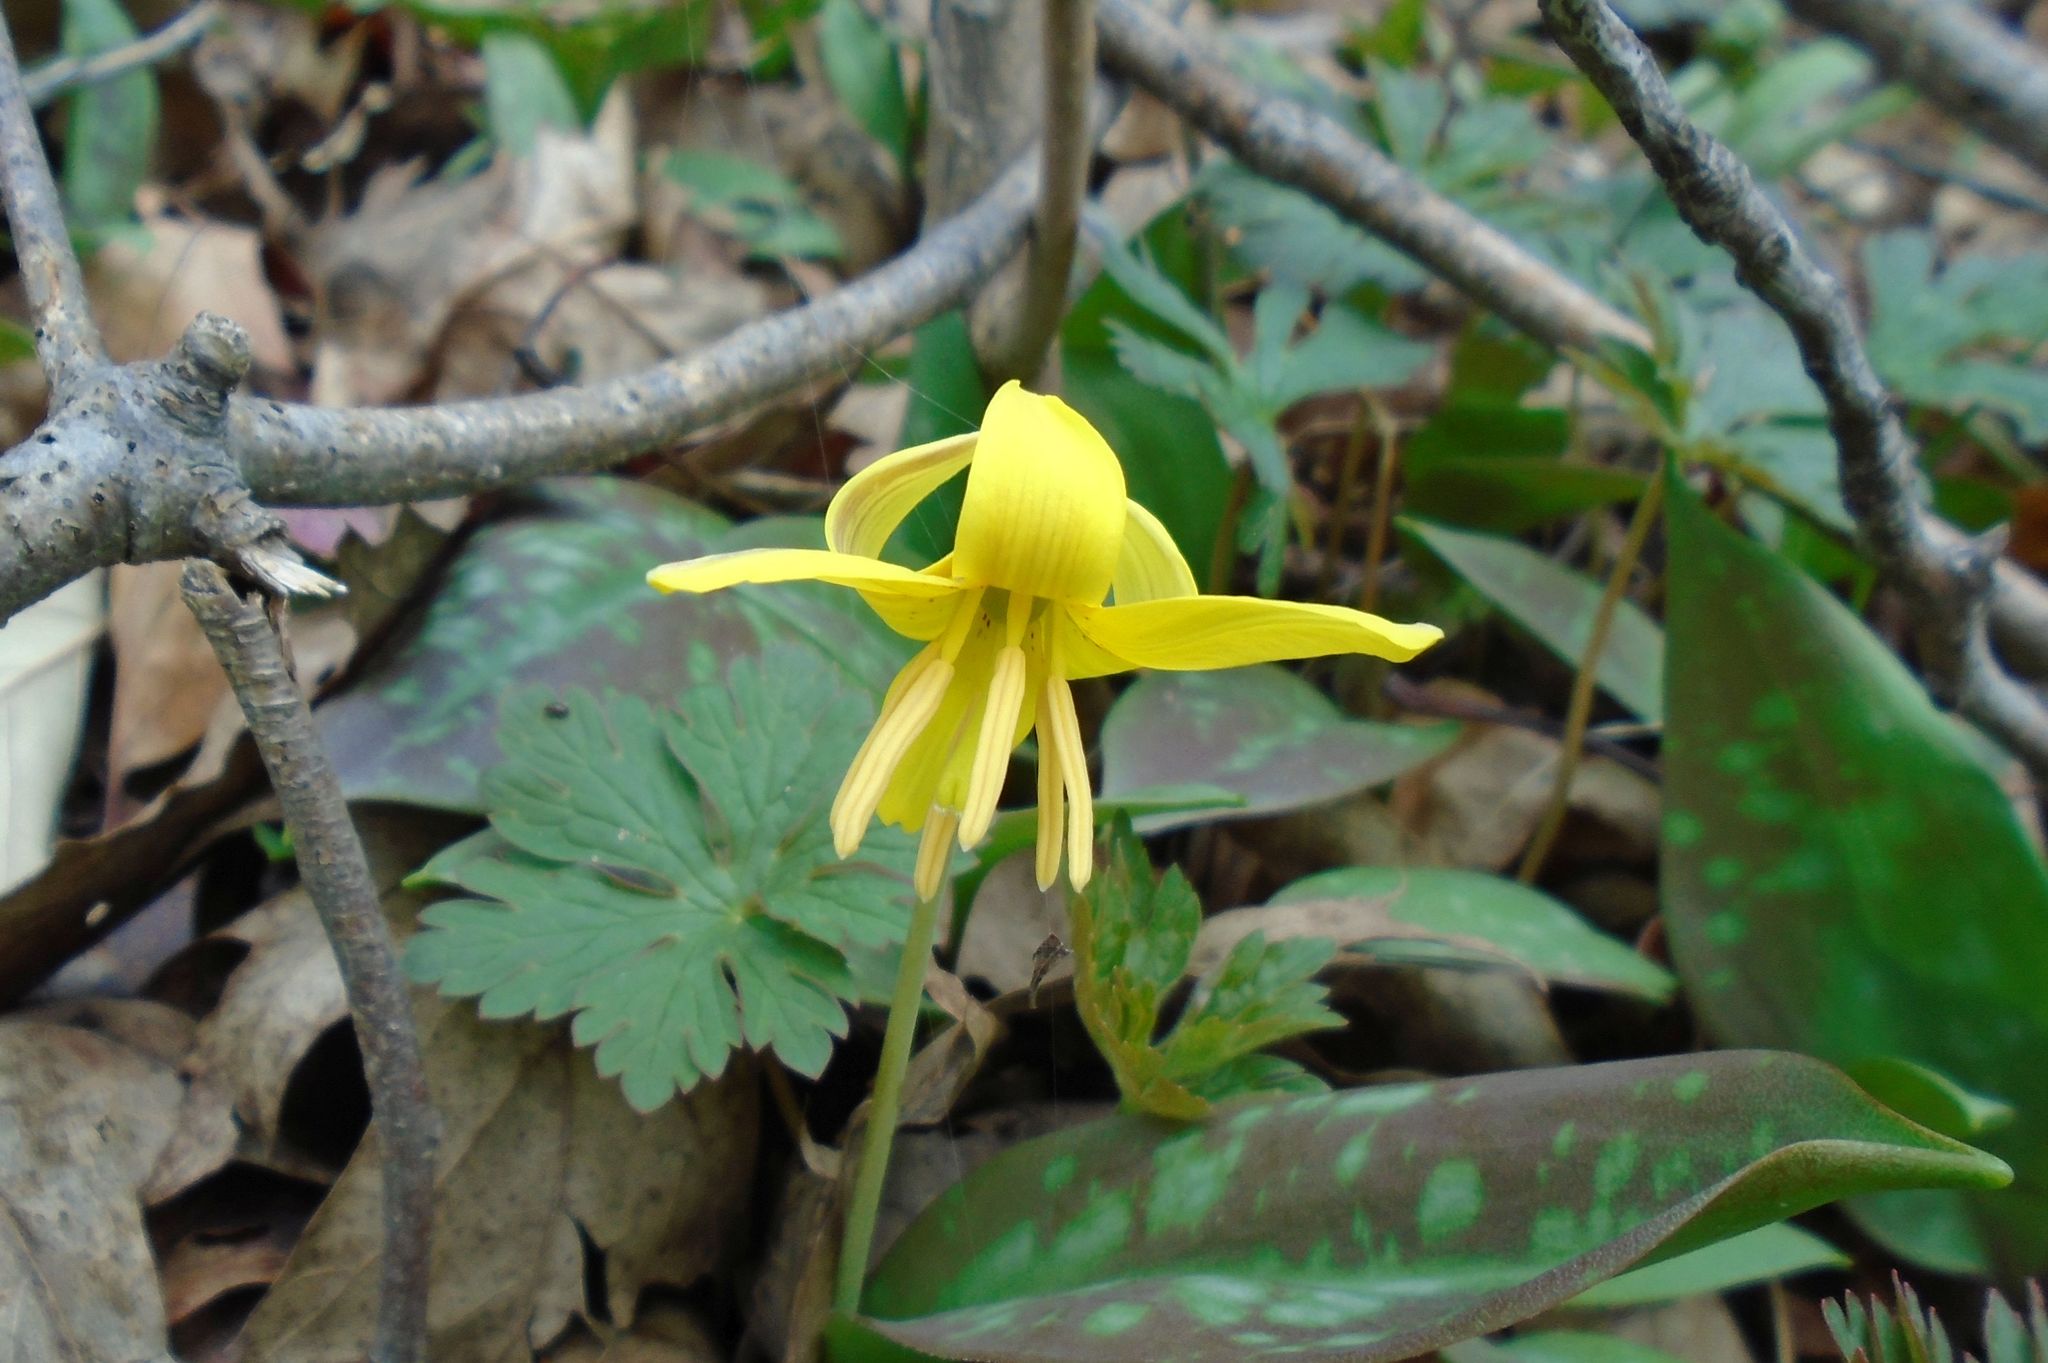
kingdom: Plantae
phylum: Tracheophyta
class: Liliopsida
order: Liliales
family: Liliaceae
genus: Erythronium
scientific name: Erythronium americanum
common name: Yellow adder's-tongue
